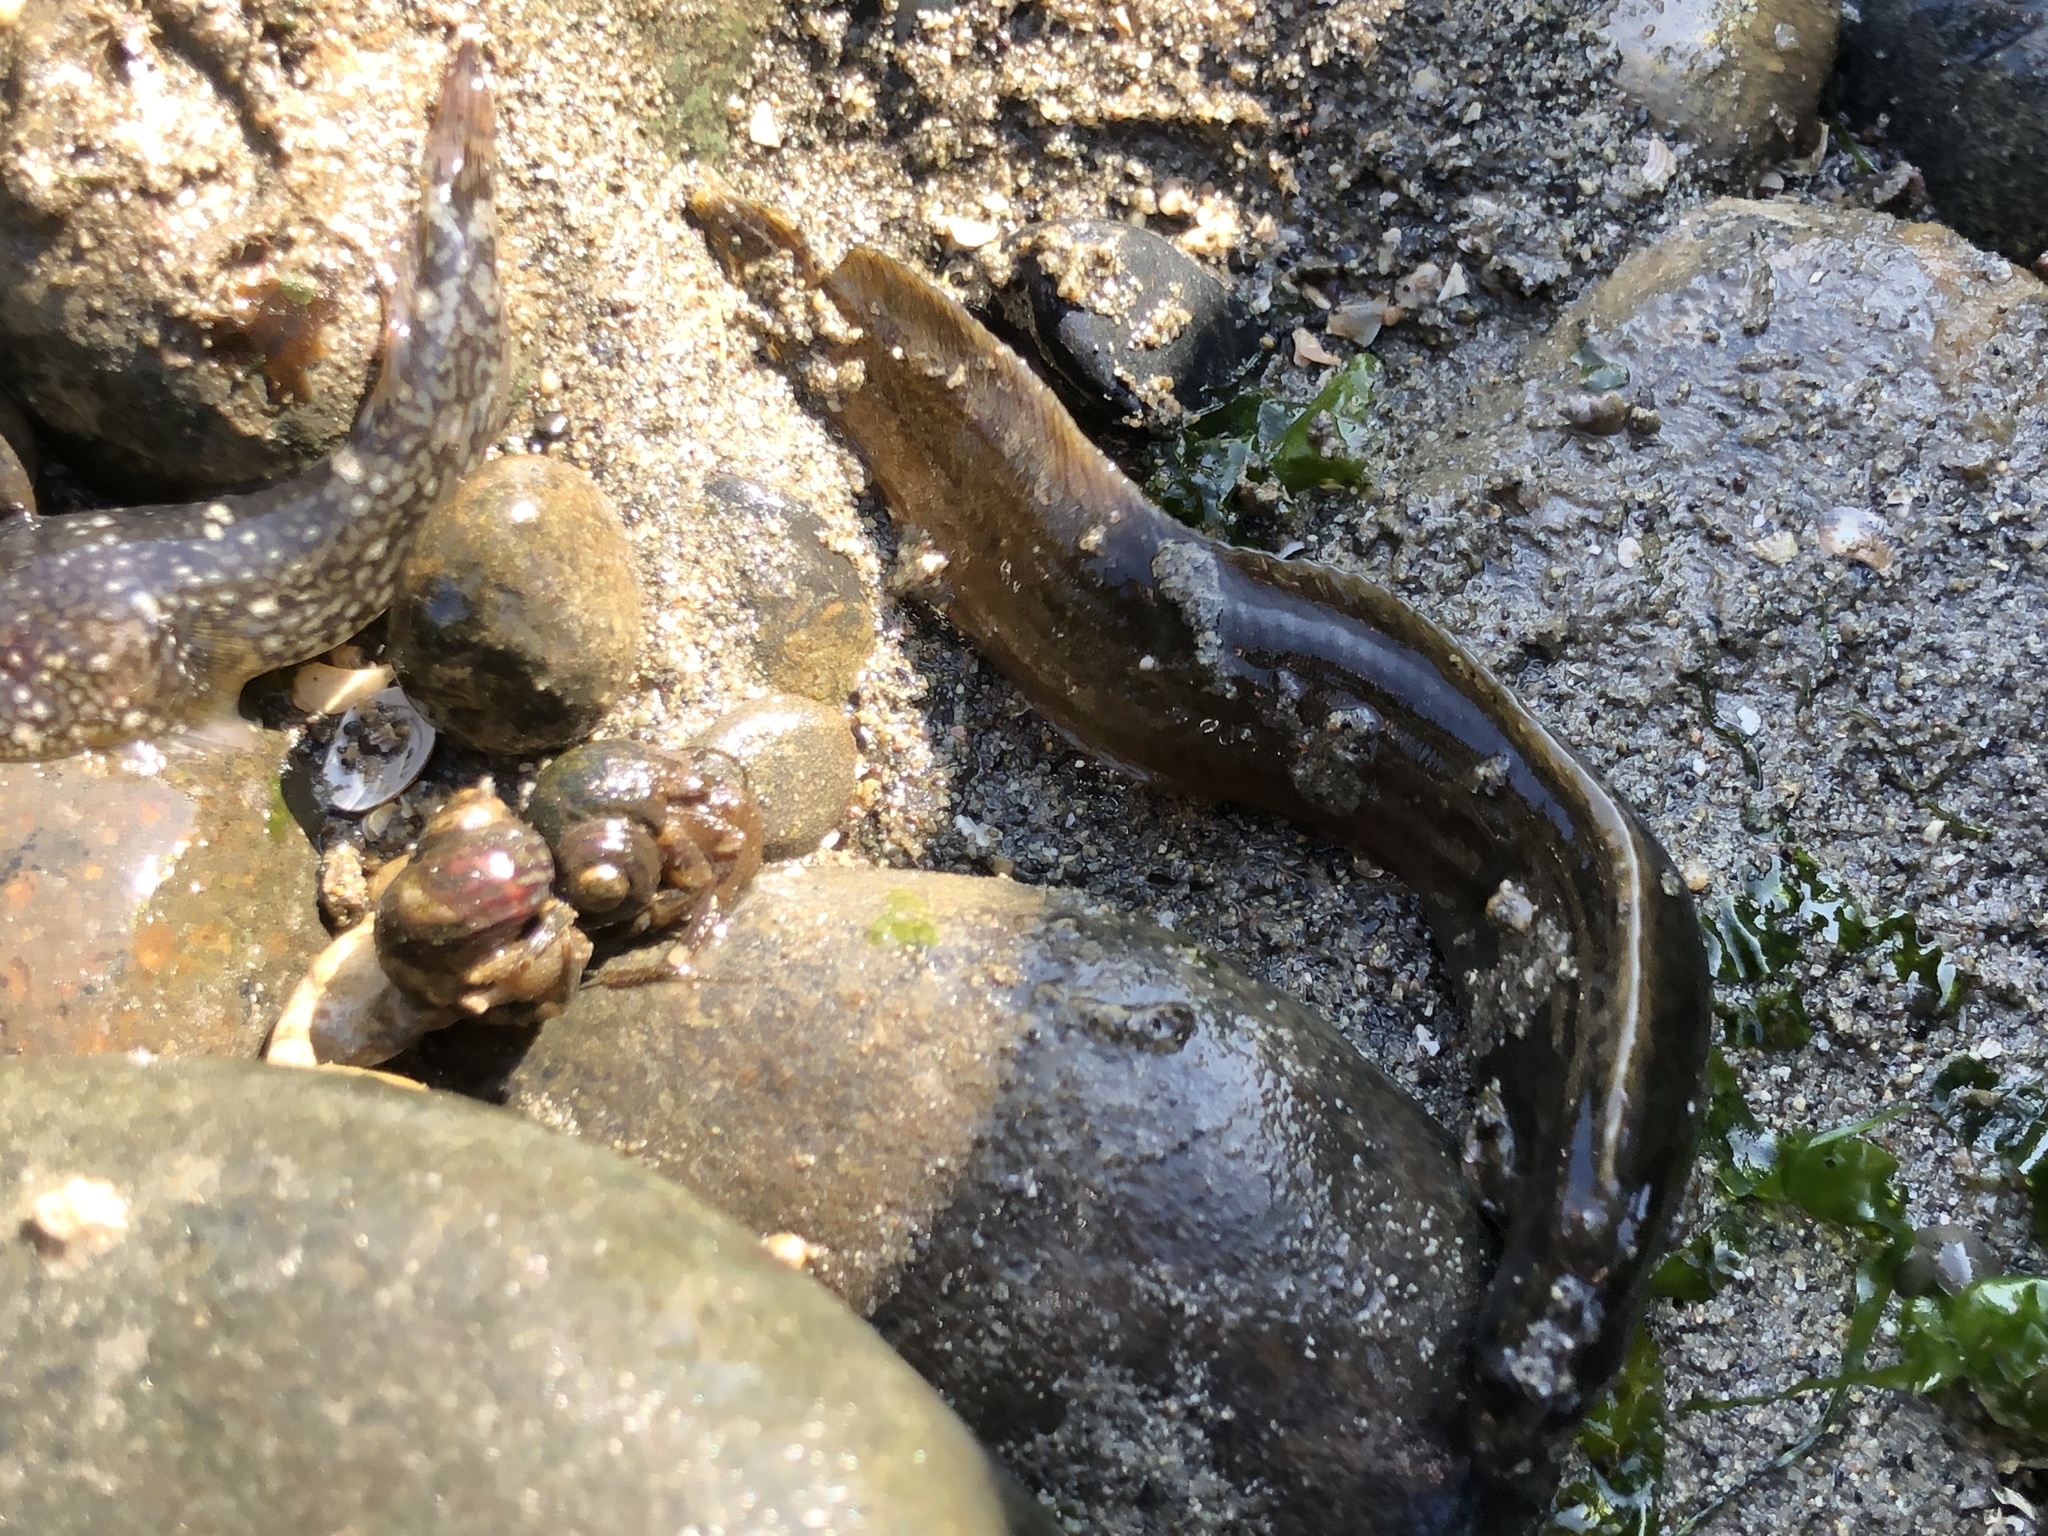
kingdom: Animalia
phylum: Chordata
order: Perciformes
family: Stichaeidae
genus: Anoplarchus
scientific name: Anoplarchus purpurescens
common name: High cockscomb
